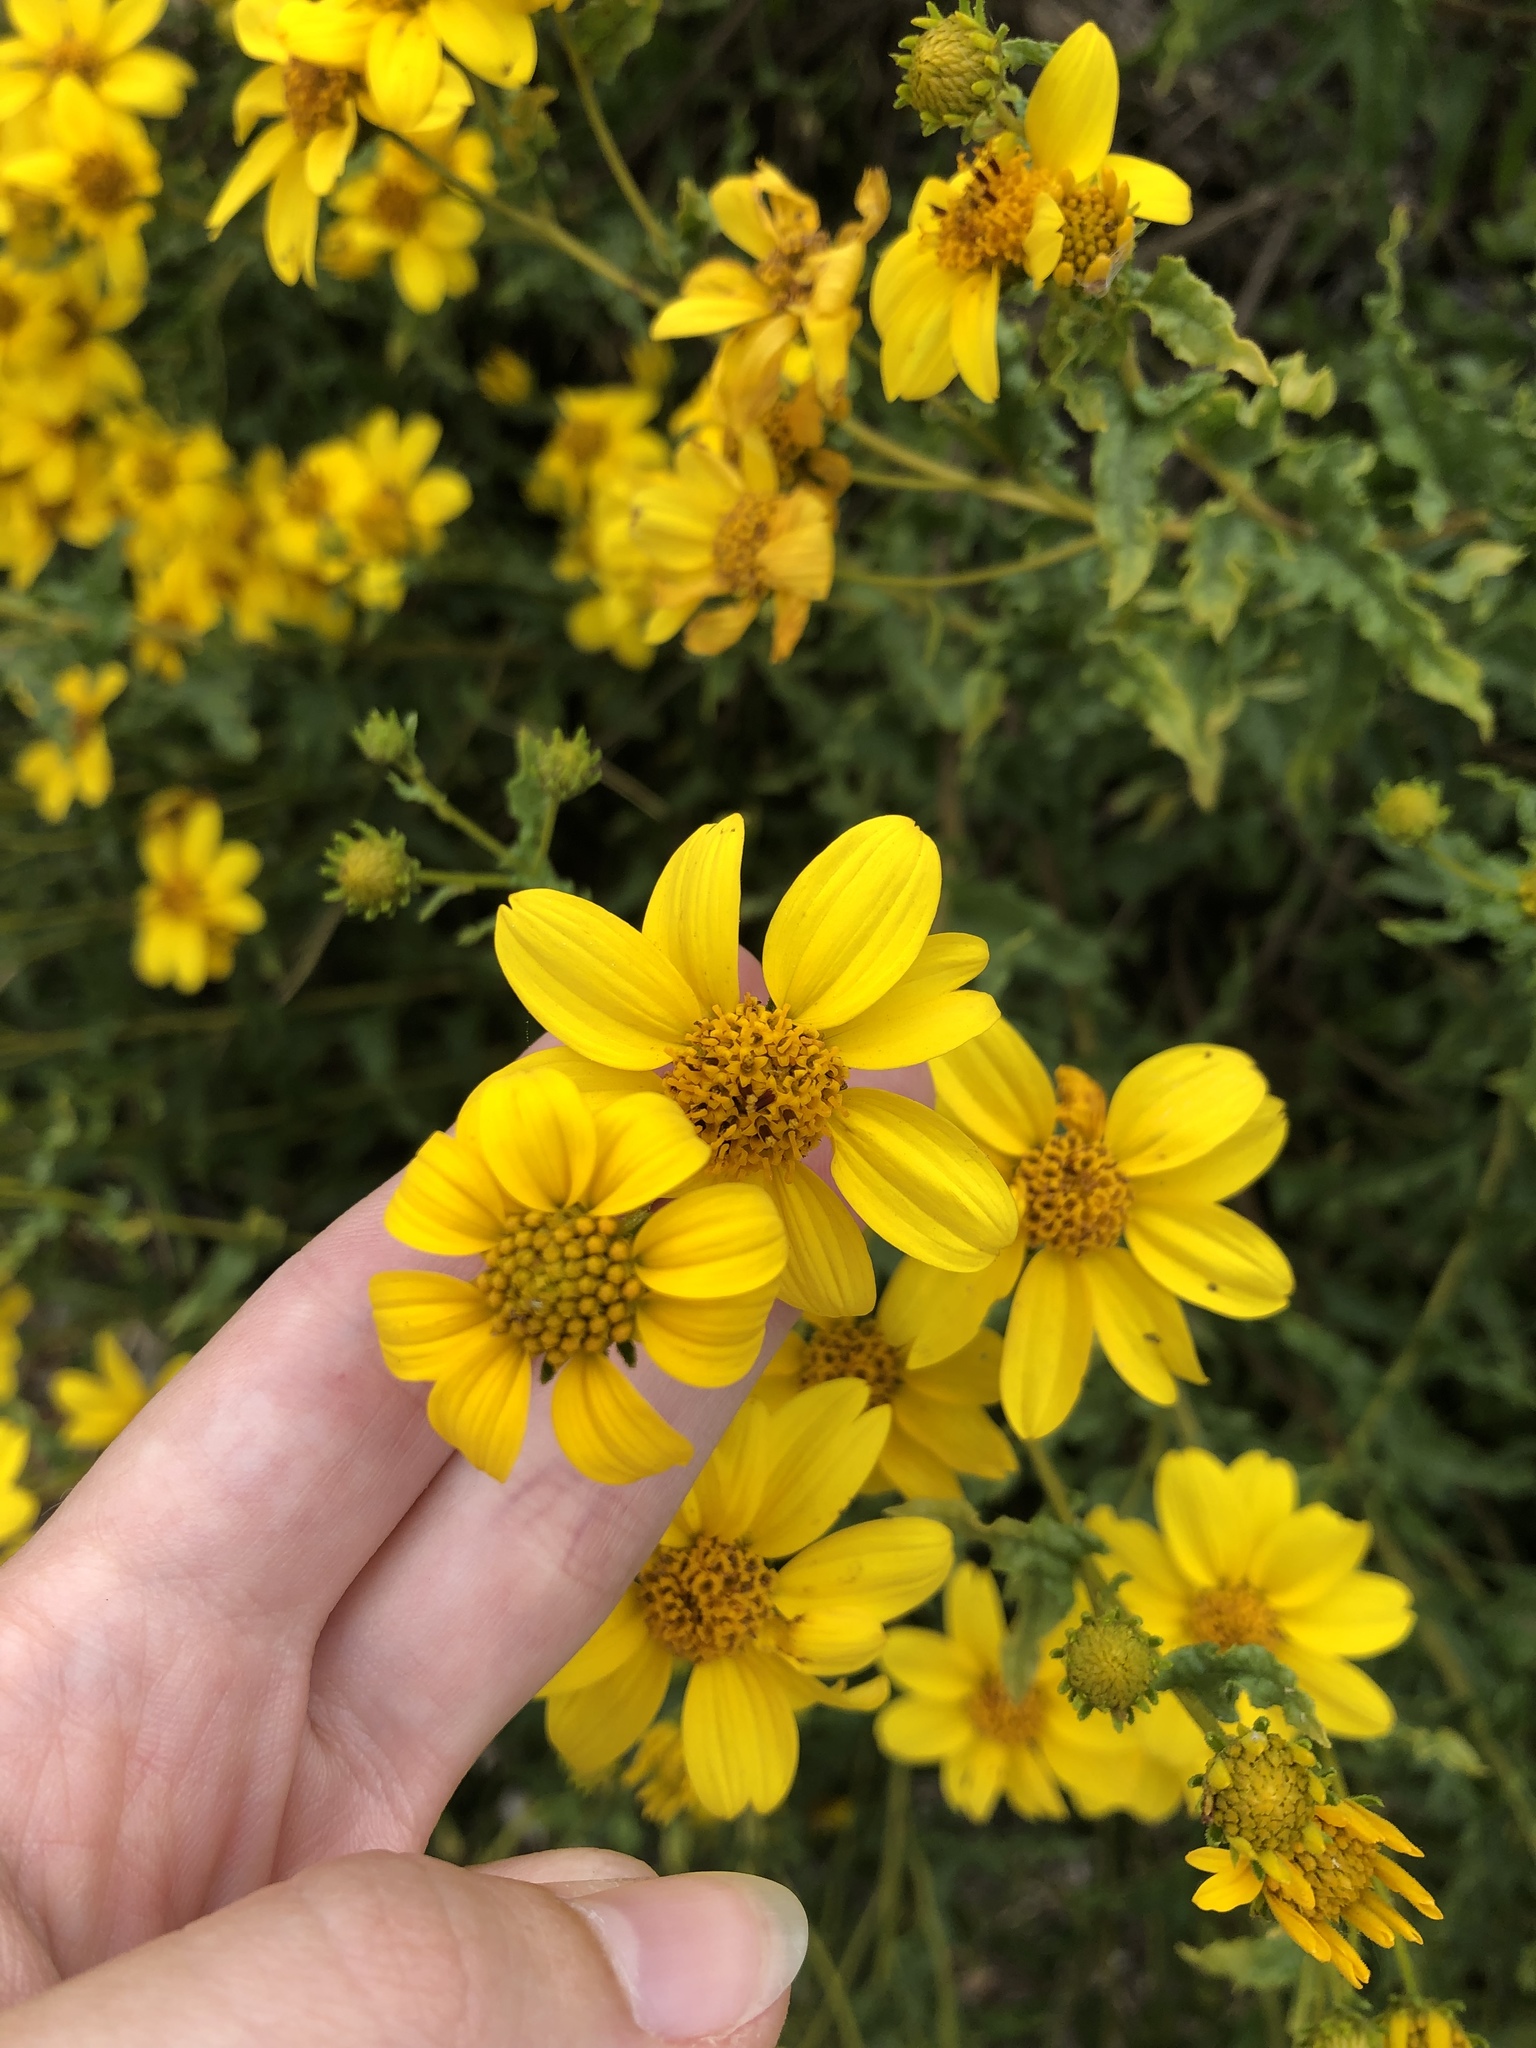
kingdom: Plantae
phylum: Tracheophyta
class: Magnoliopsida
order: Asterales
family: Asteraceae
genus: Bahiopsis
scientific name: Bahiopsis laciniata
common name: San diego county viguiera
